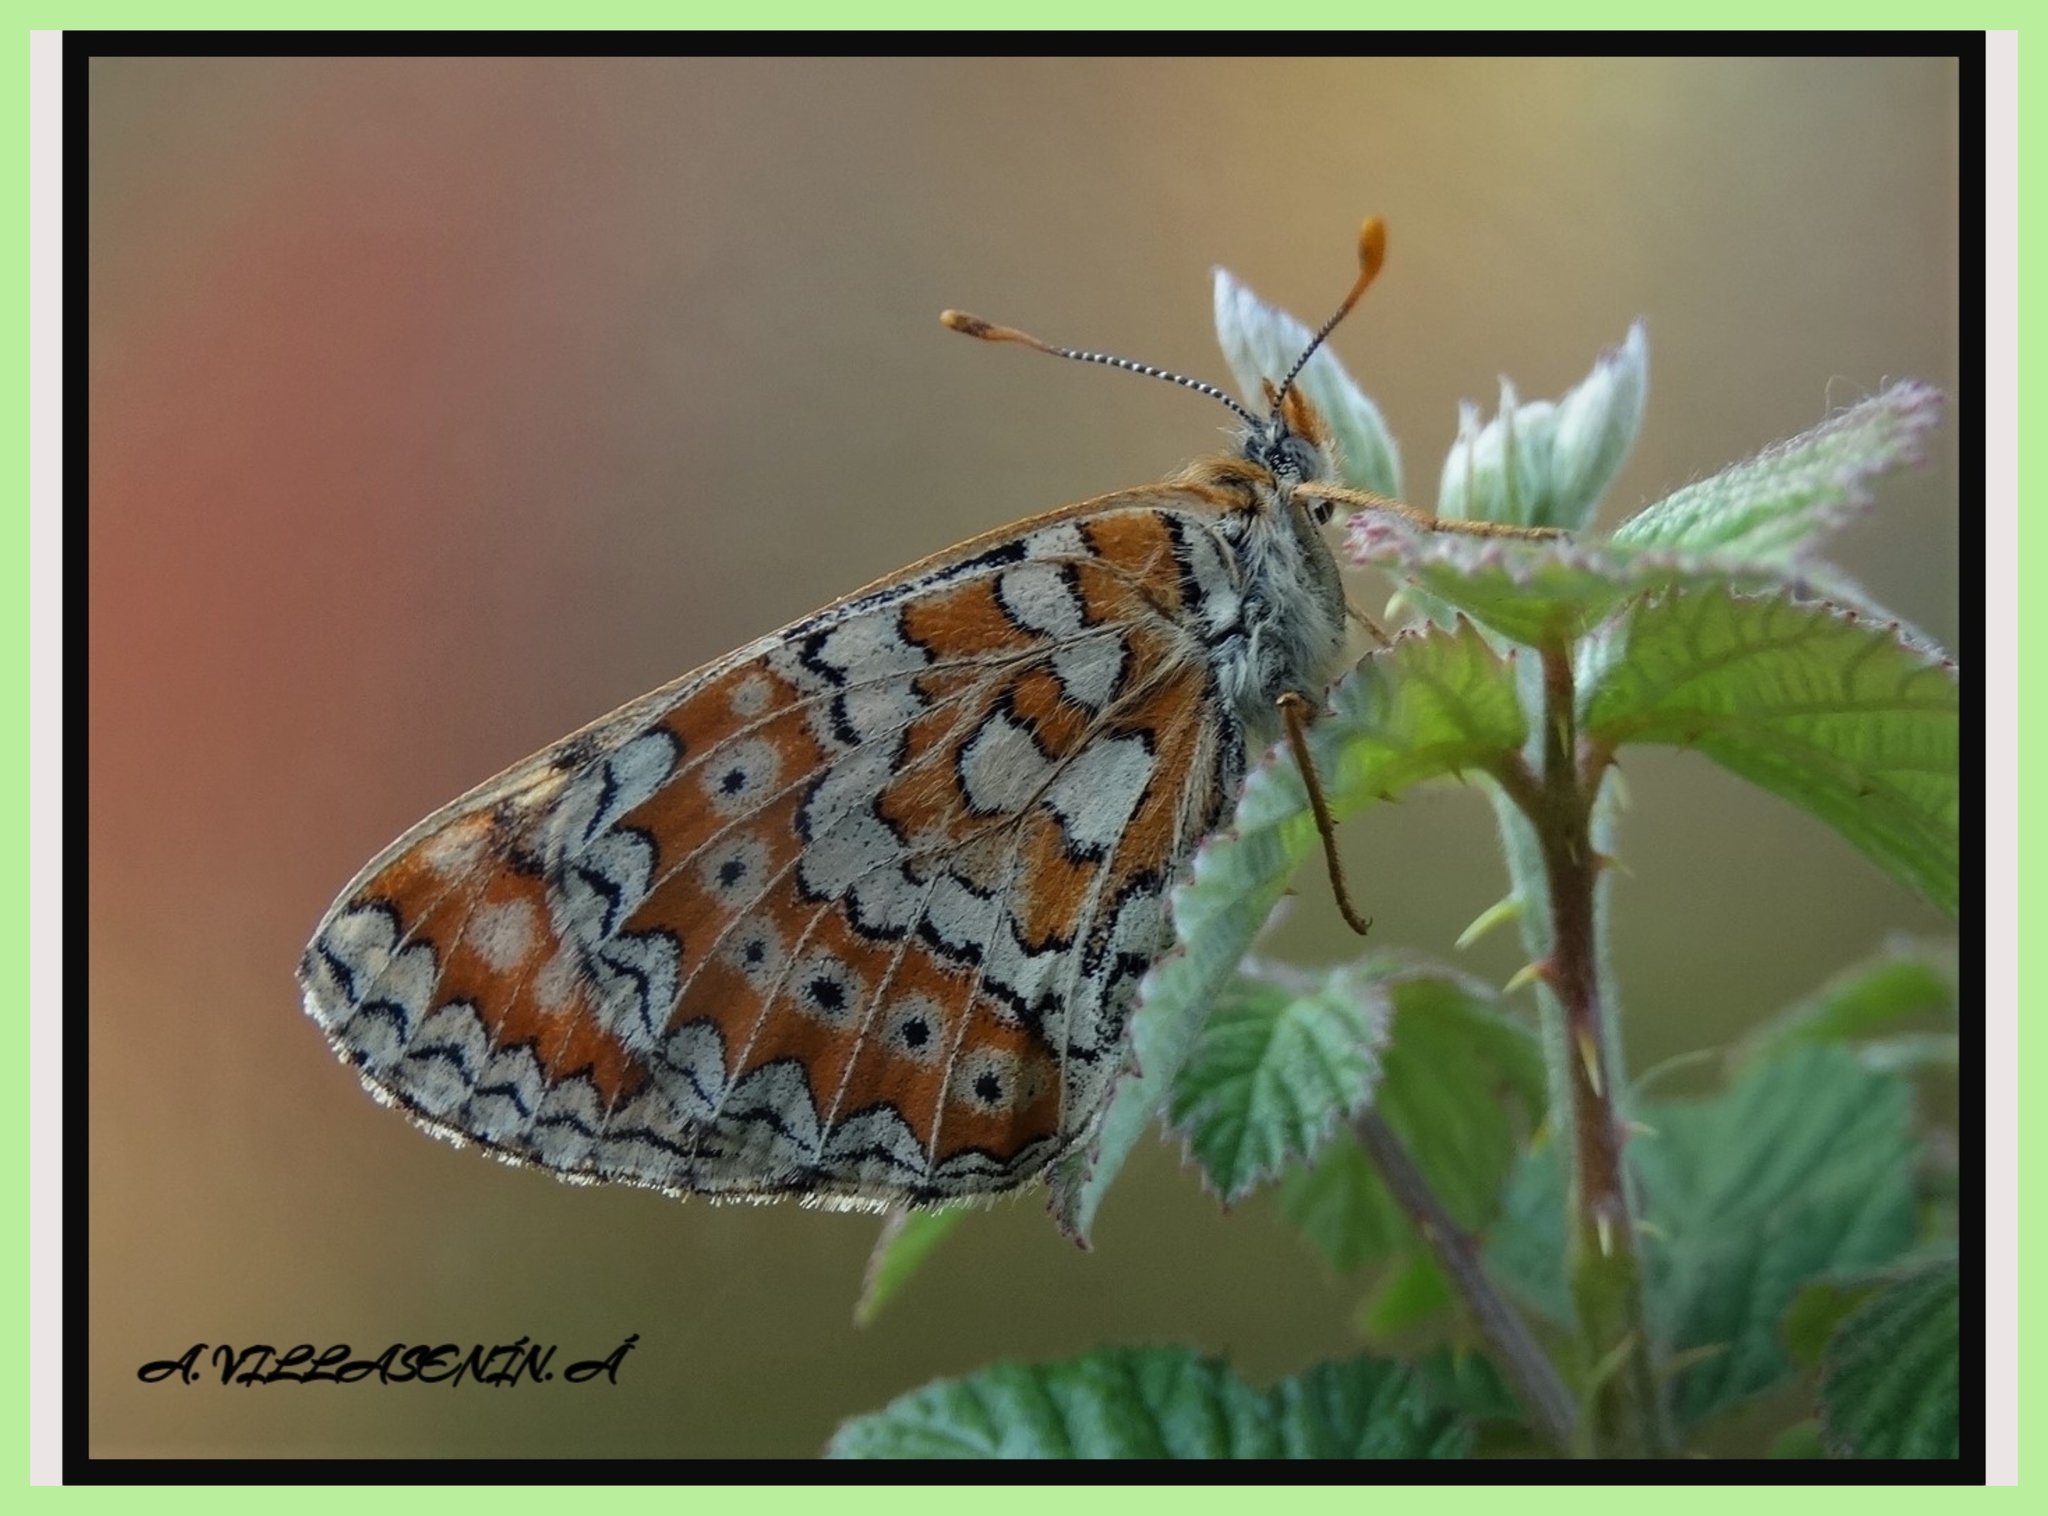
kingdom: Animalia
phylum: Arthropoda
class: Insecta
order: Lepidoptera
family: Nymphalidae
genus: Euphydryas
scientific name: Euphydryas desfontainii
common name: Spanish fritillary
